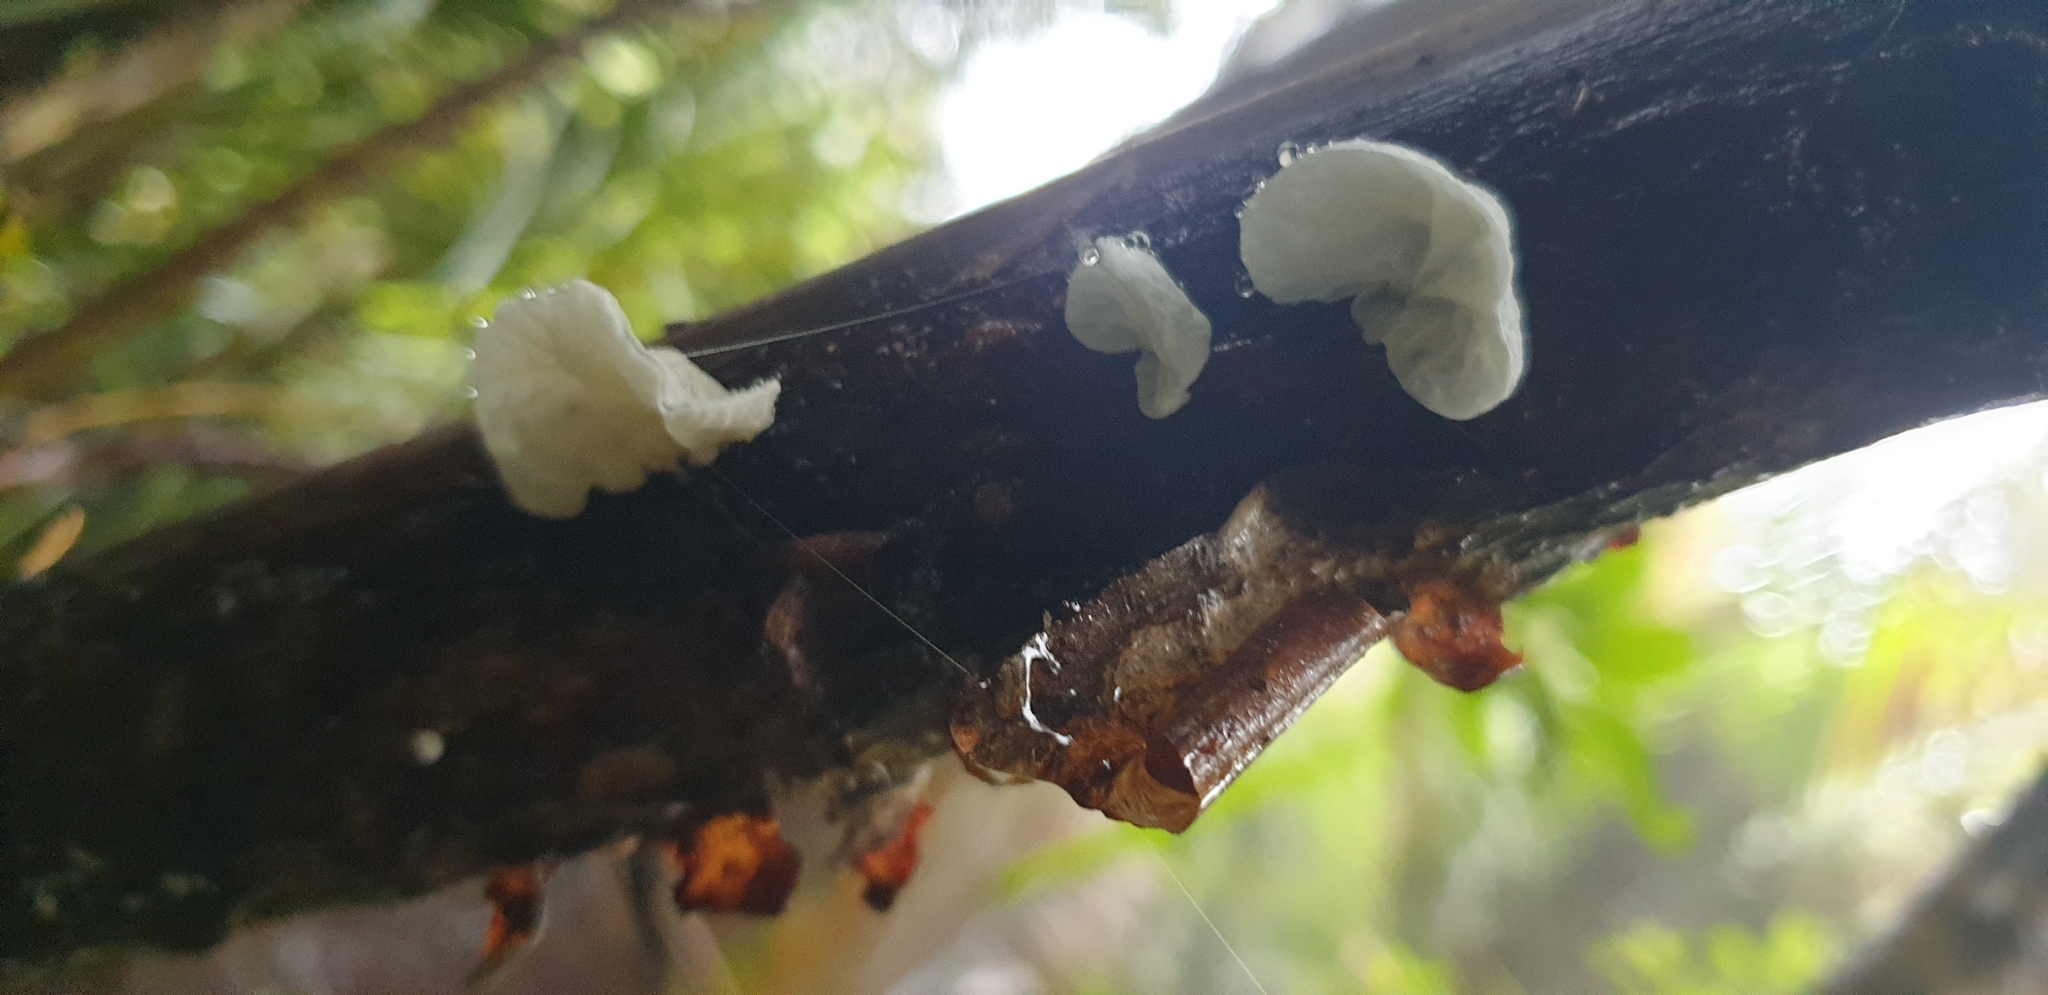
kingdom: Fungi
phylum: Basidiomycota
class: Agaricomycetes
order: Agaricales
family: Marasmiaceae
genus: Campanella
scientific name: Campanella tristis
